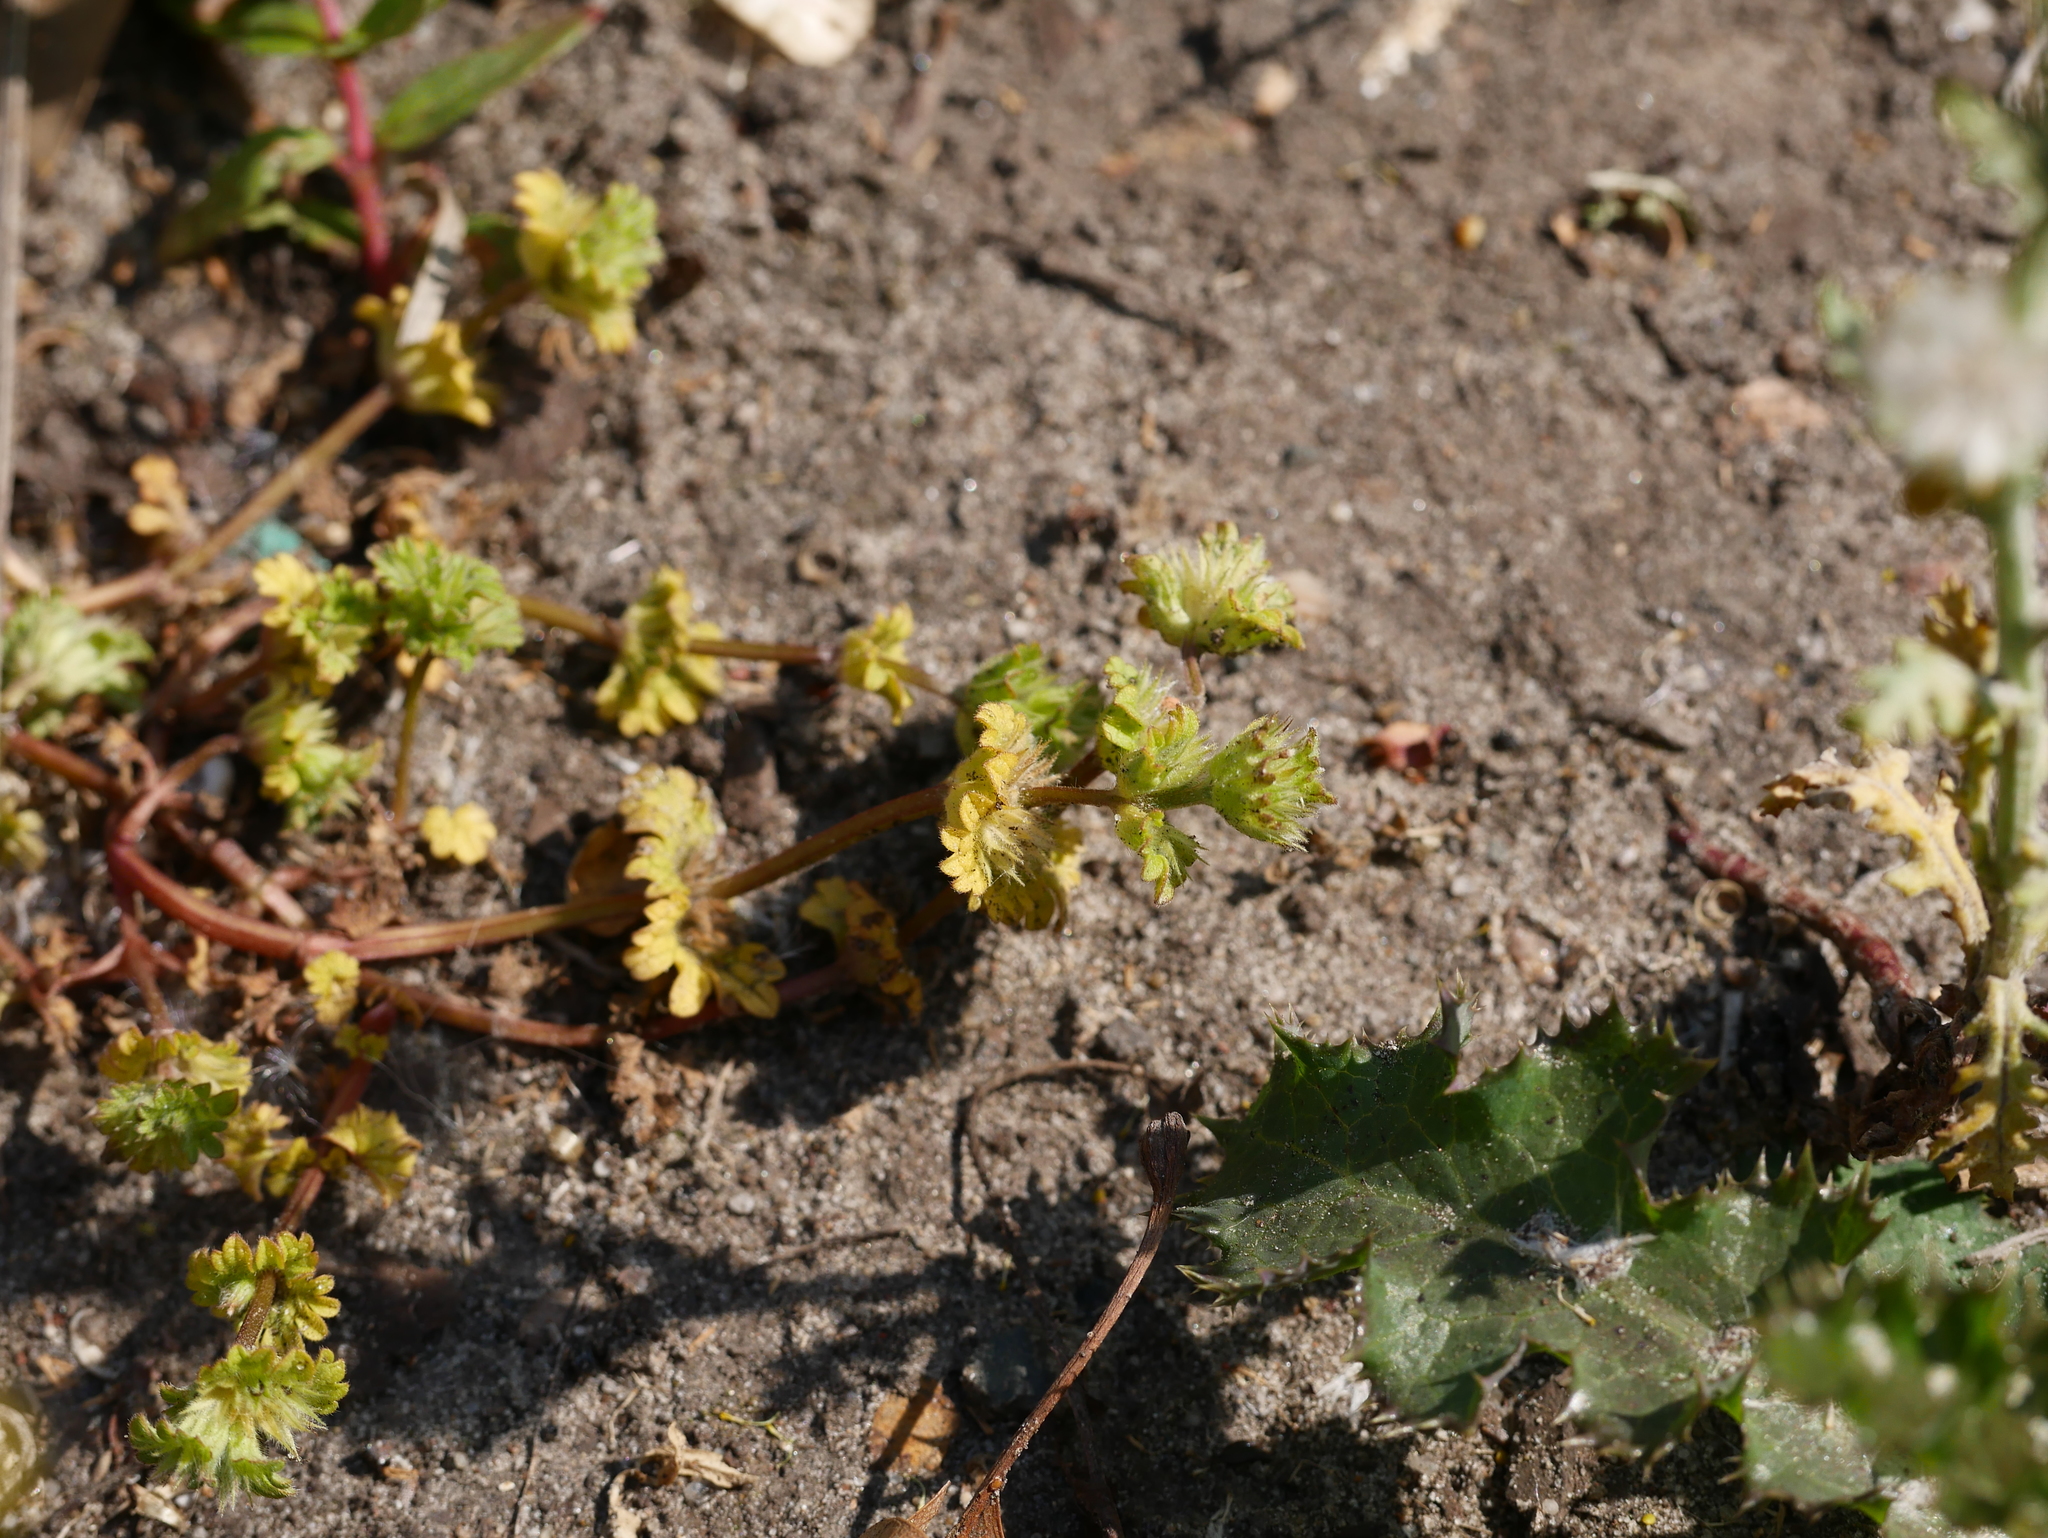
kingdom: Plantae
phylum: Tracheophyta
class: Magnoliopsida
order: Lamiales
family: Lamiaceae
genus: Lamium
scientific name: Lamium amplexicaule
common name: Henbit dead-nettle
